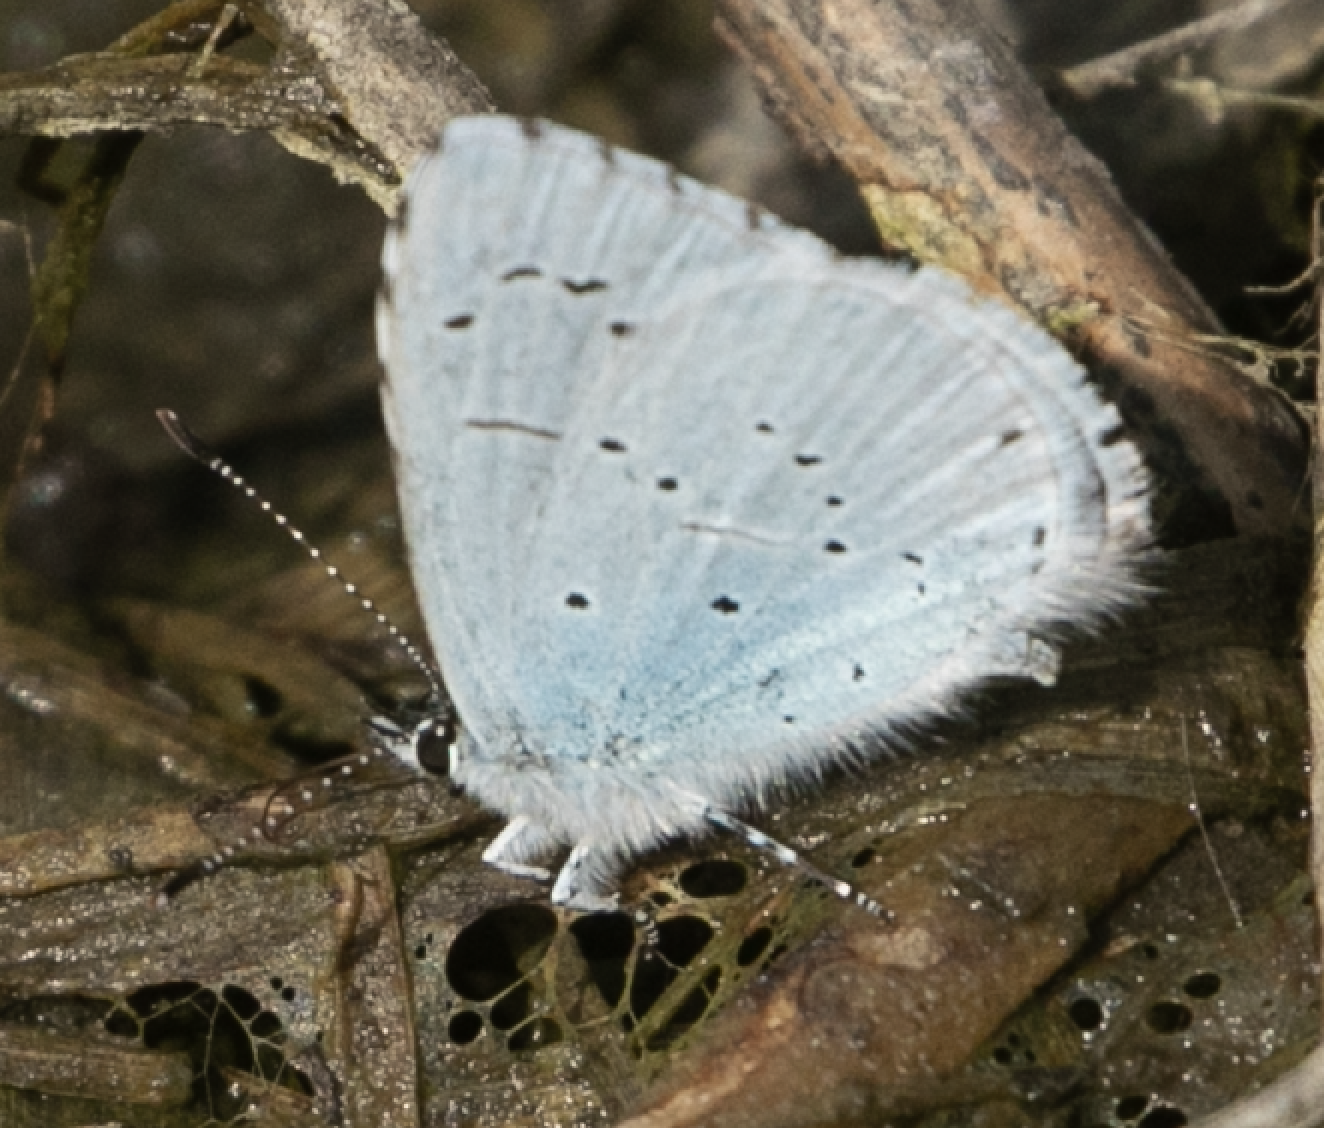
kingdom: Animalia
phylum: Arthropoda
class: Insecta
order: Lepidoptera
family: Lycaenidae
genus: Celastrina
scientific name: Celastrina argiolus
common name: Holly blue
